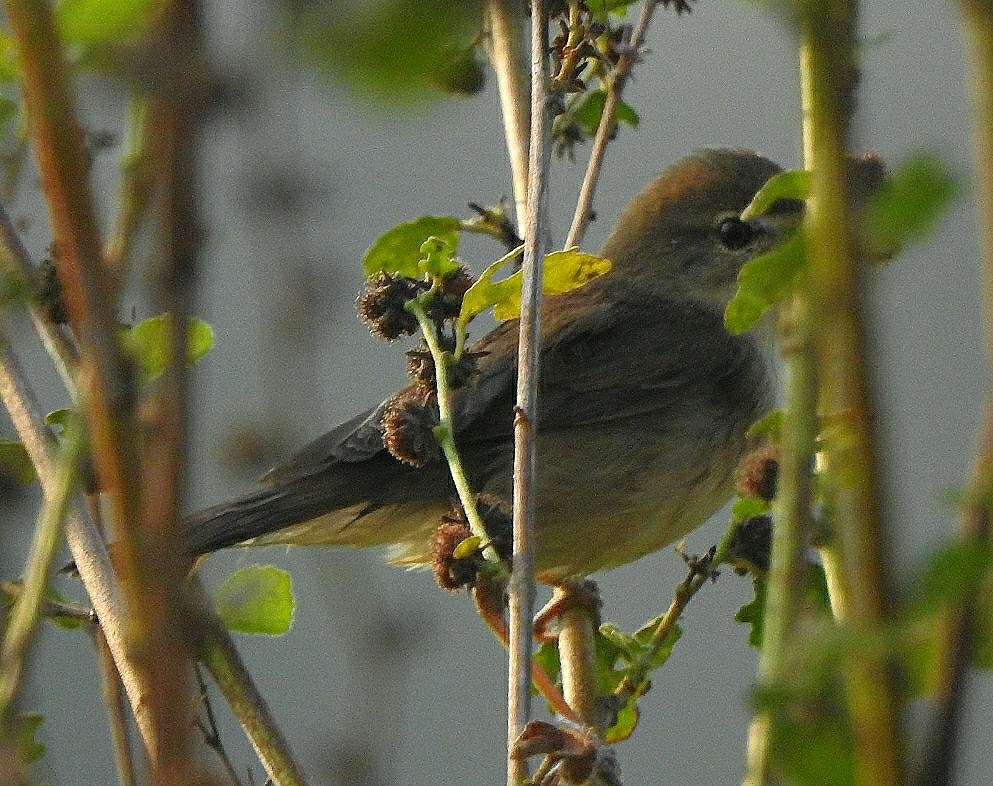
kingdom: Animalia
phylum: Chordata
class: Aves
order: Passeriformes
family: Acrocephalidae
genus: Acrocephalus
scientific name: Acrocephalus dumetorum
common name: Blyth's reed warbler
